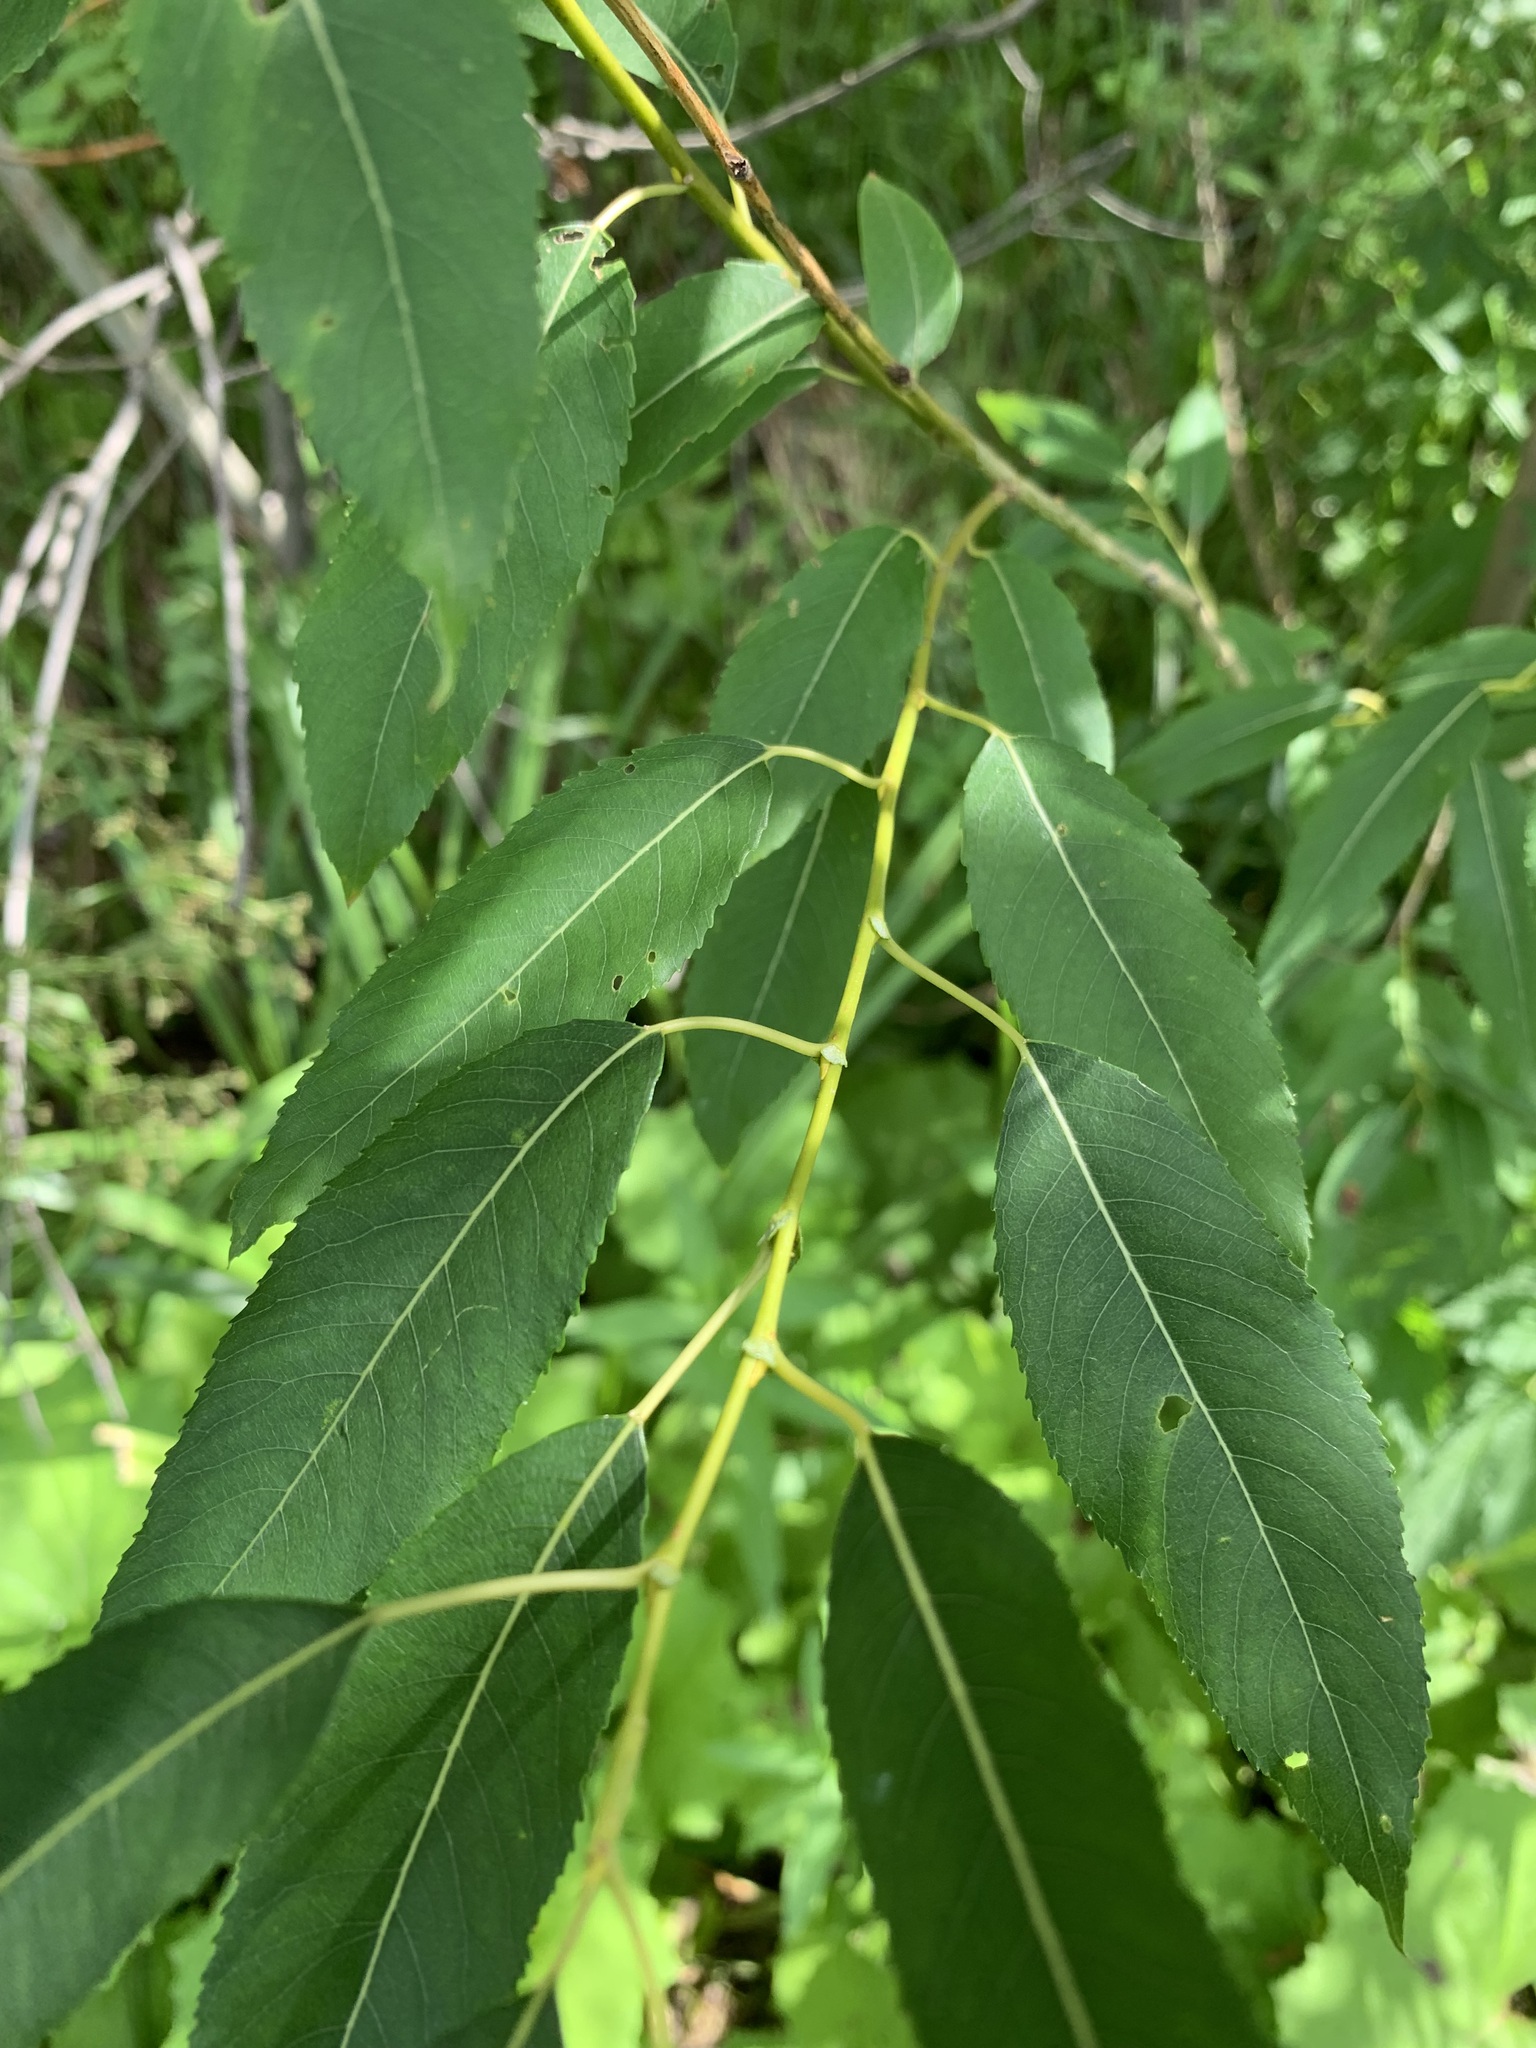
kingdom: Plantae
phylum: Tracheophyta
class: Magnoliopsida
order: Malpighiales
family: Salicaceae
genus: Salix
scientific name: Salix triandra
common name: Almond willow
